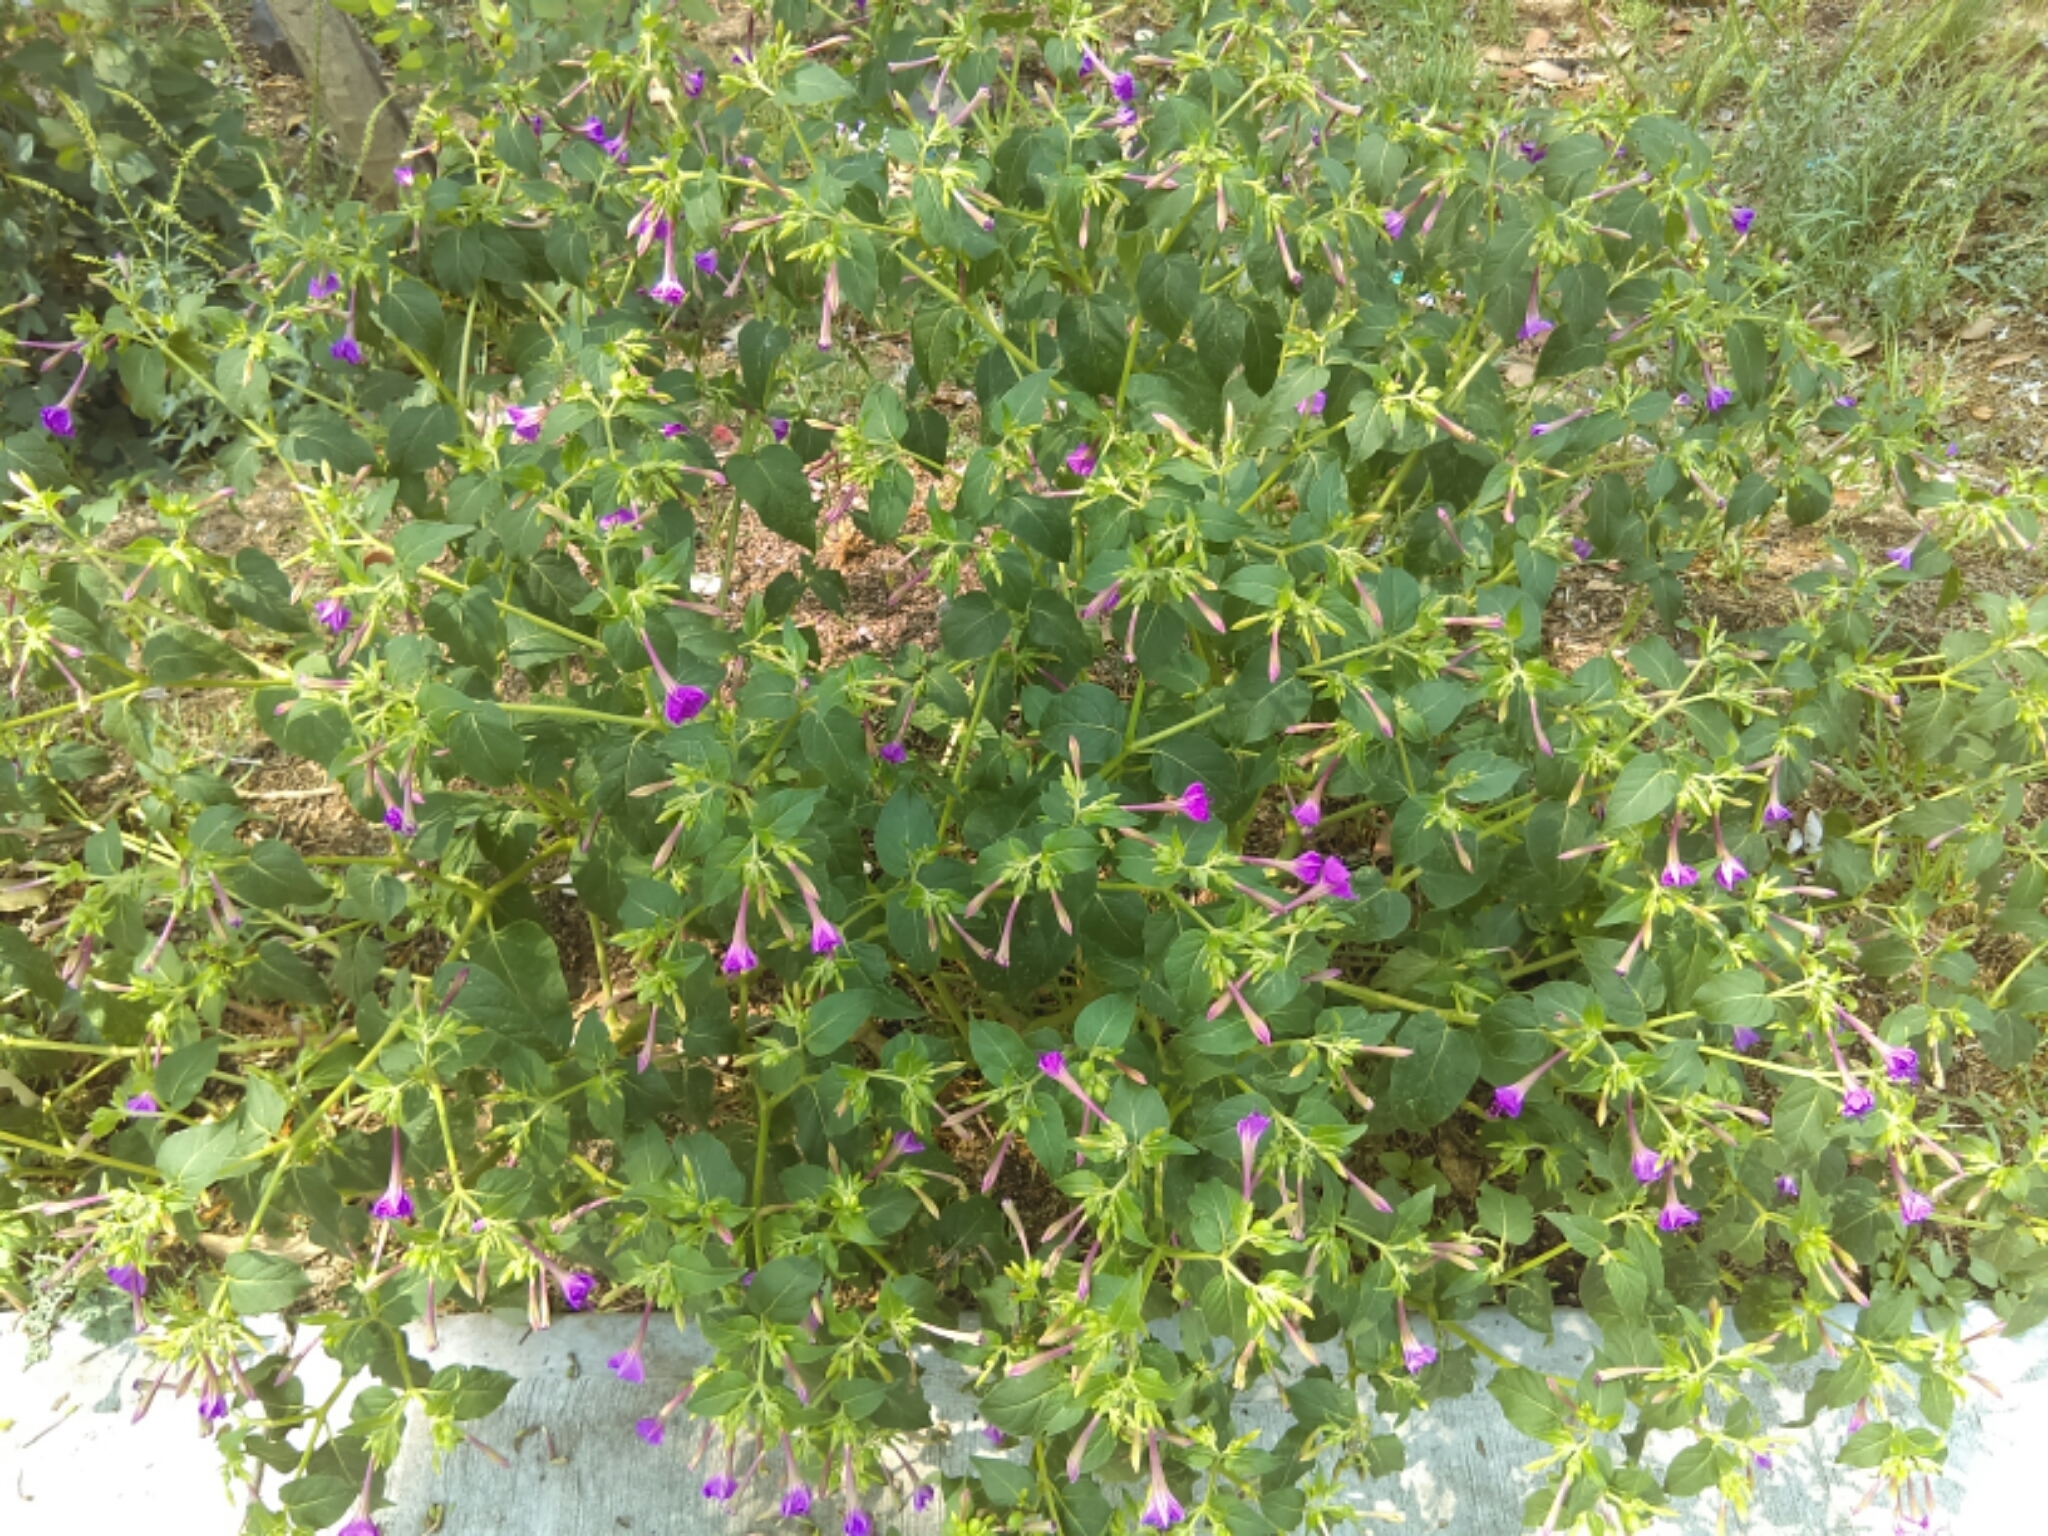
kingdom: Plantae
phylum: Tracheophyta
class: Magnoliopsida
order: Caryophyllales
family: Nyctaginaceae
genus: Mirabilis
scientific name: Mirabilis jalapa
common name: Marvel-of-peru
